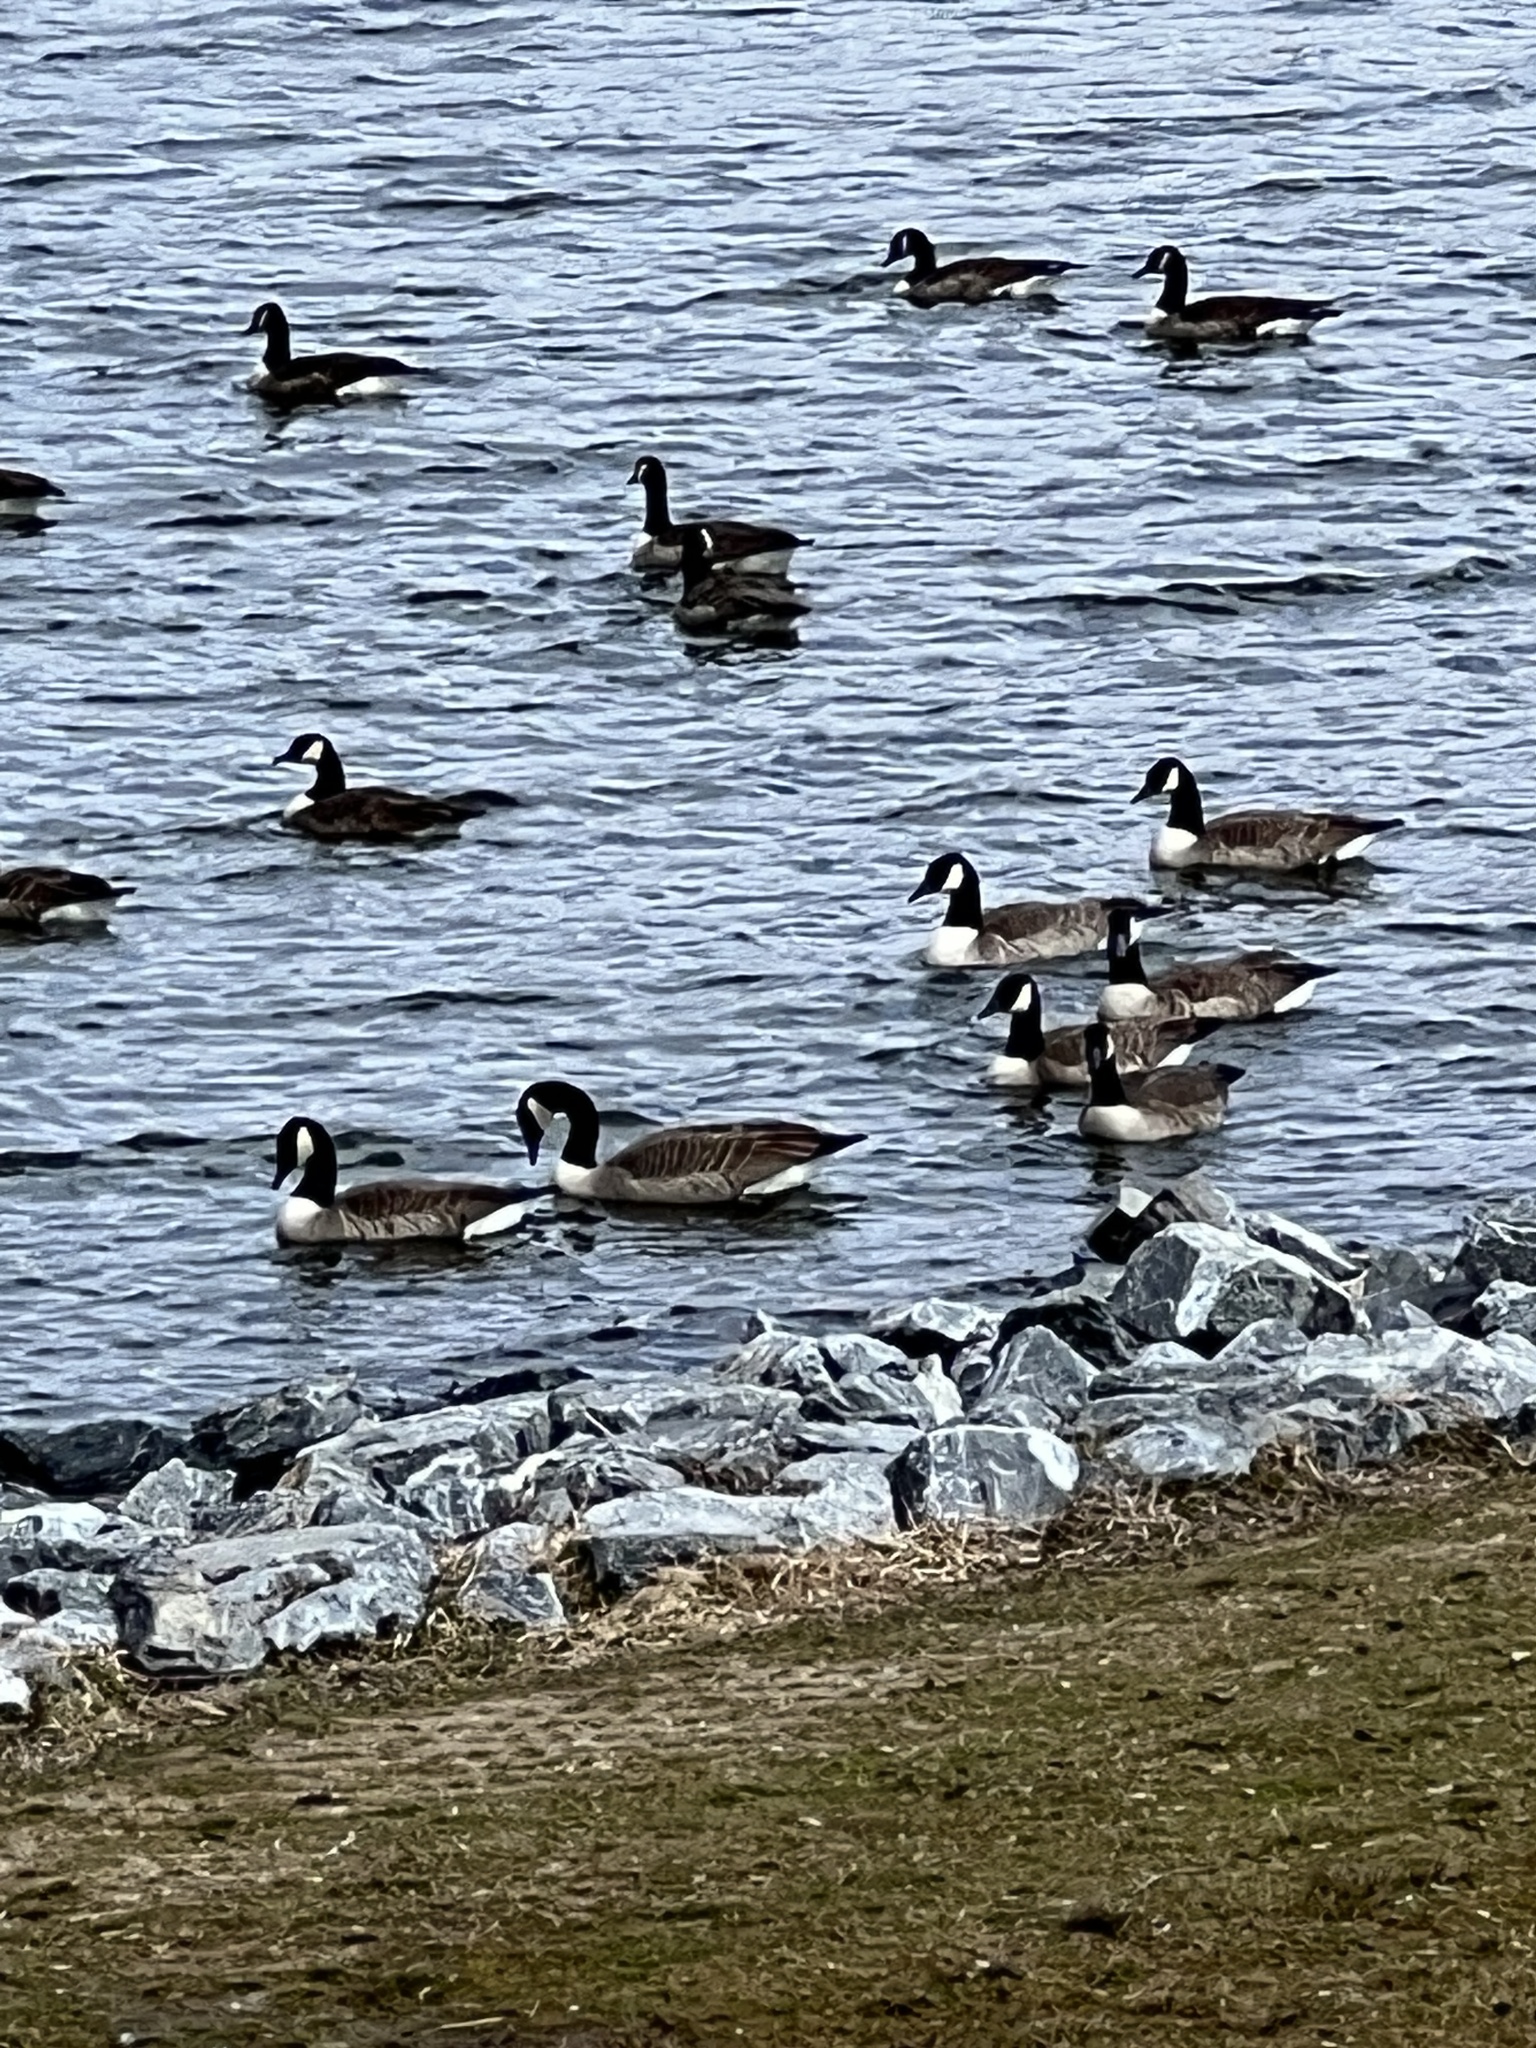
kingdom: Animalia
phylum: Chordata
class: Aves
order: Anseriformes
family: Anatidae
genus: Branta
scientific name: Branta canadensis
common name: Canada goose
